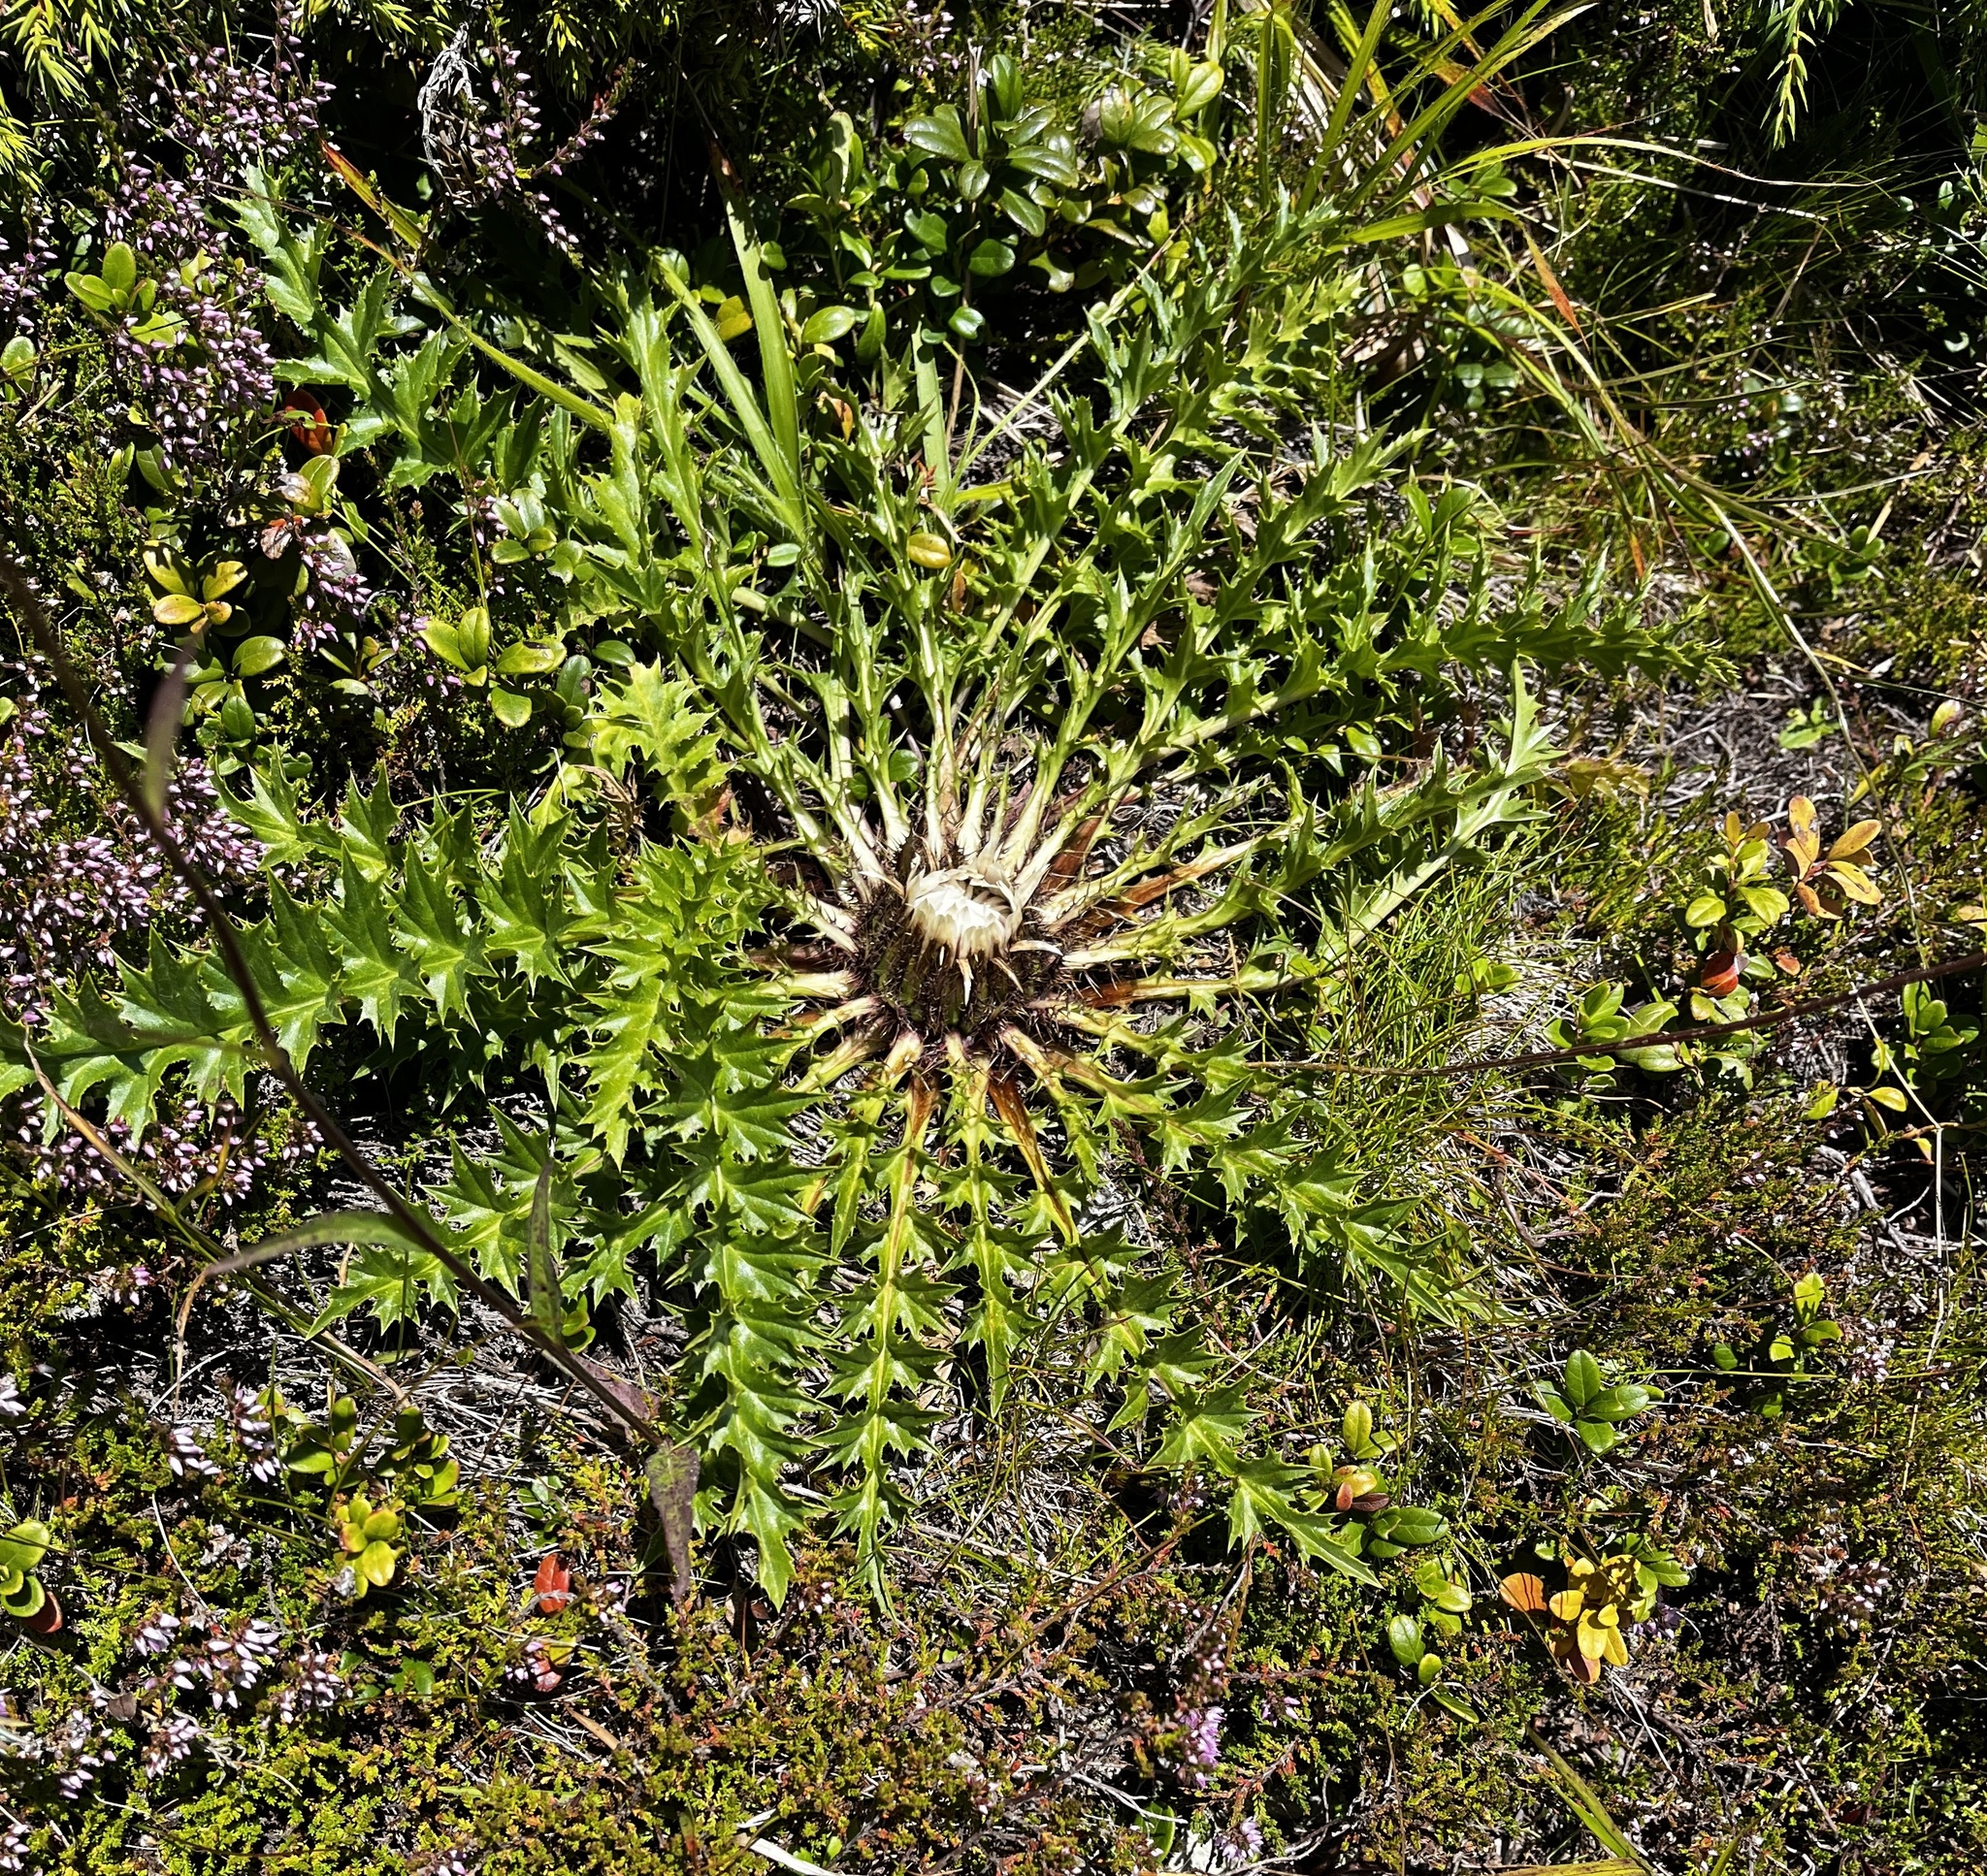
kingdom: Plantae
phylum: Tracheophyta
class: Magnoliopsida
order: Asterales
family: Asteraceae
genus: Carlina
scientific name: Carlina acaulis
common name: Stemless carline thistle
